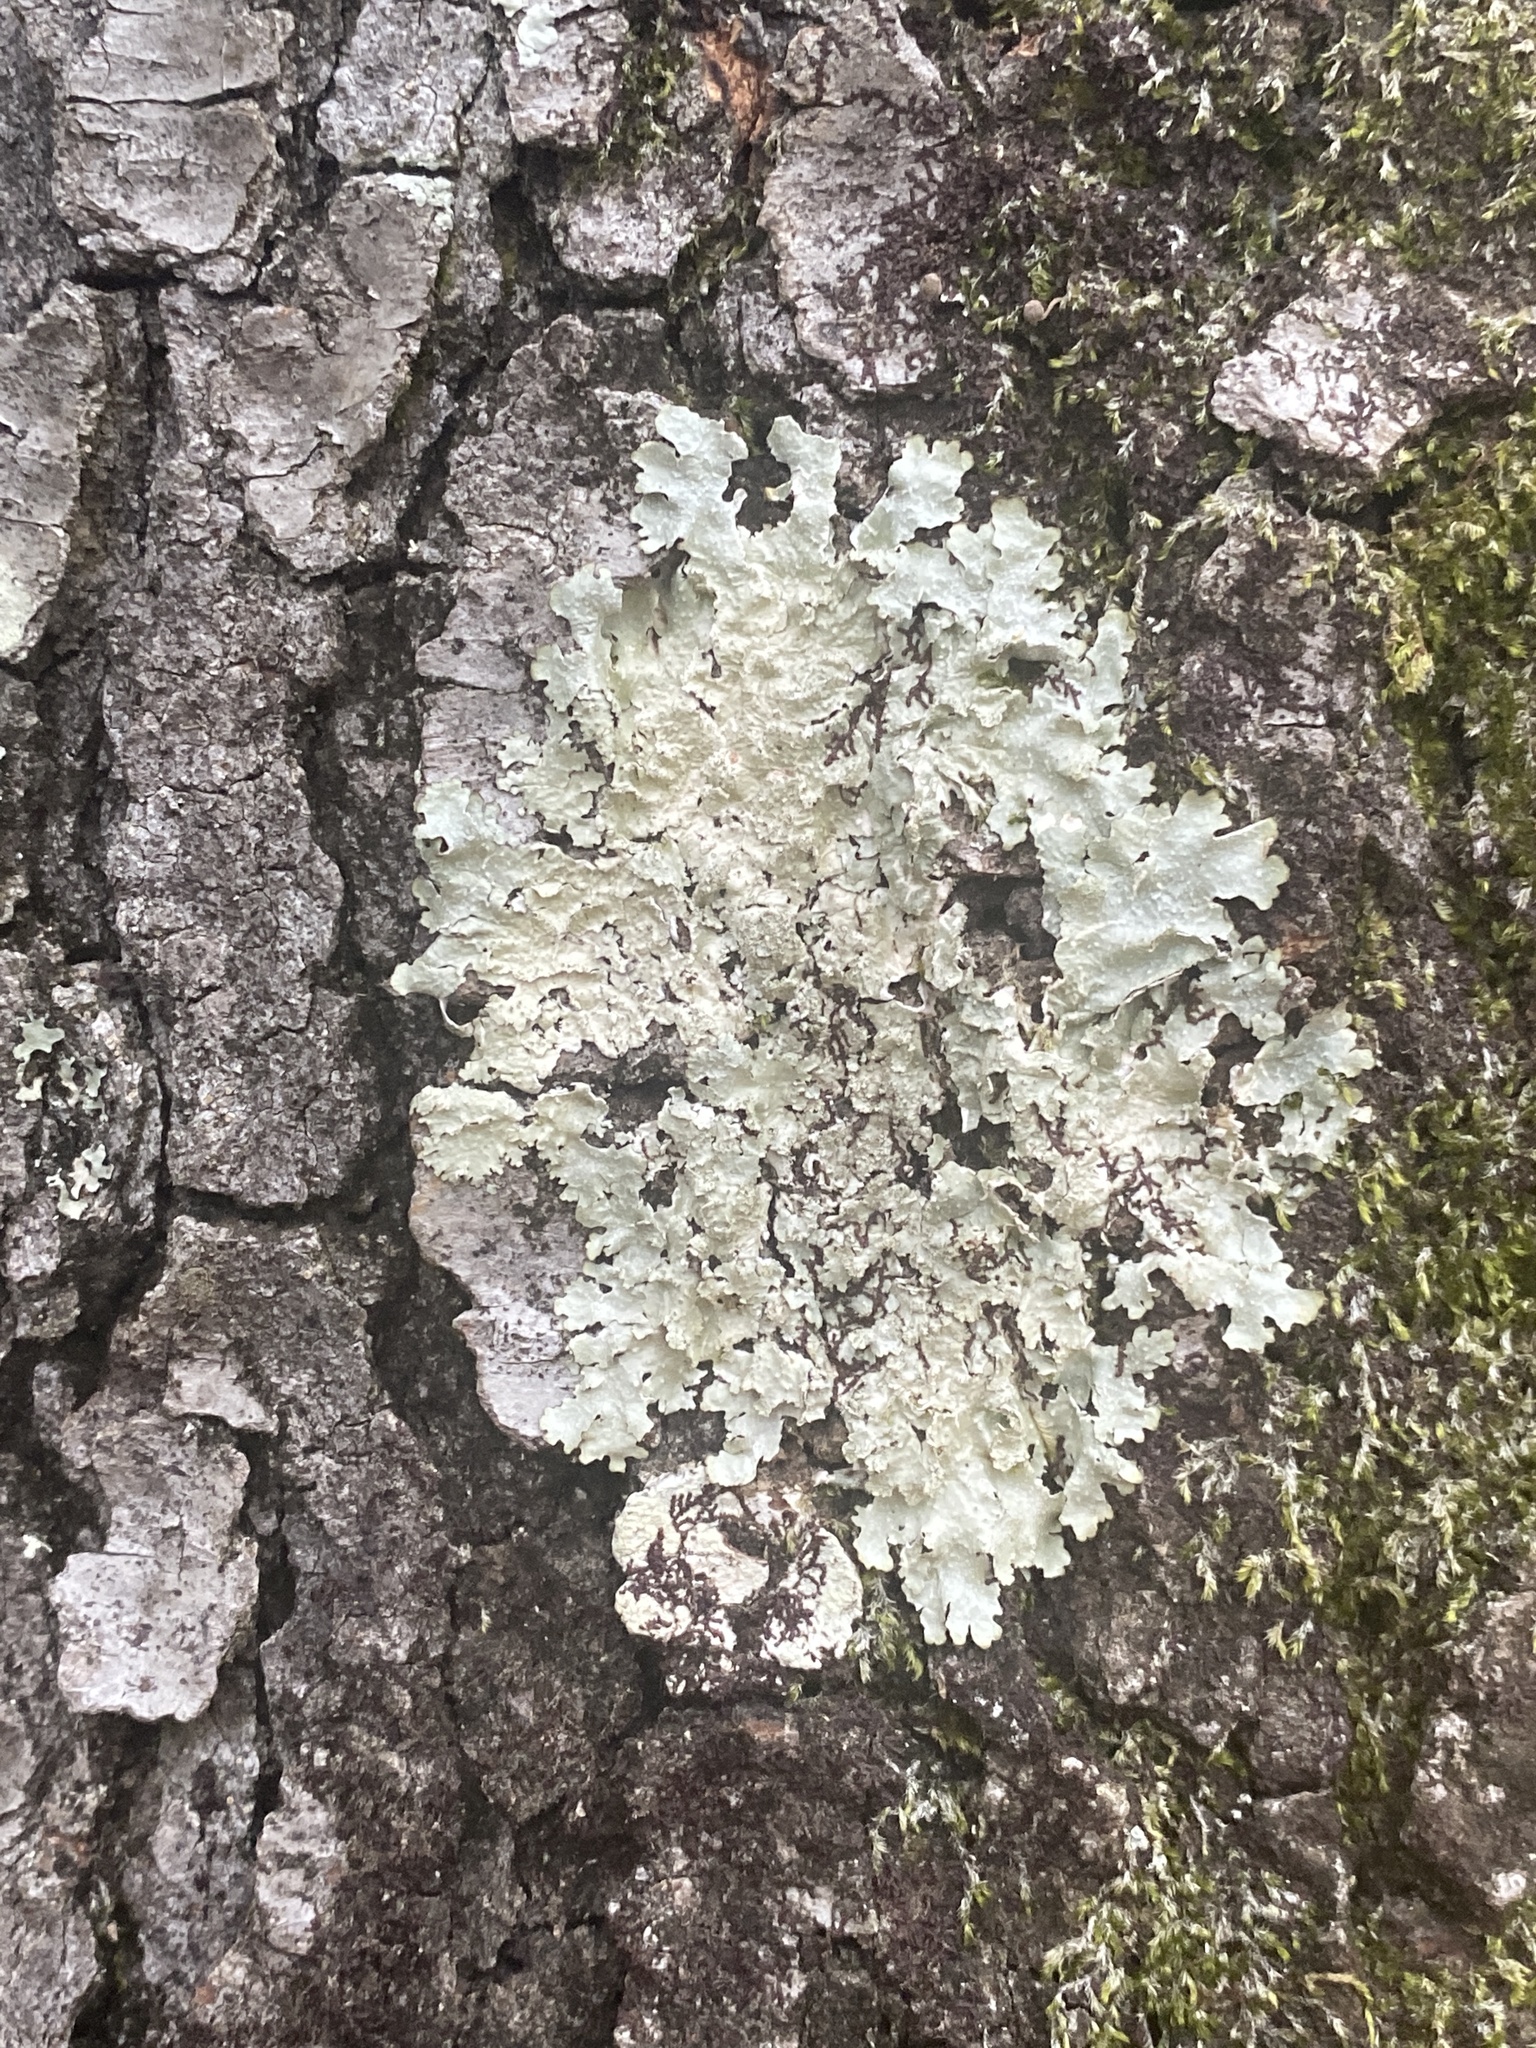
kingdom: Fungi
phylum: Ascomycota
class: Lecanoromycetes
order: Lecanorales
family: Parmeliaceae
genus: Punctelia
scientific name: Punctelia rudecta
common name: Rough speckled shield lichen
